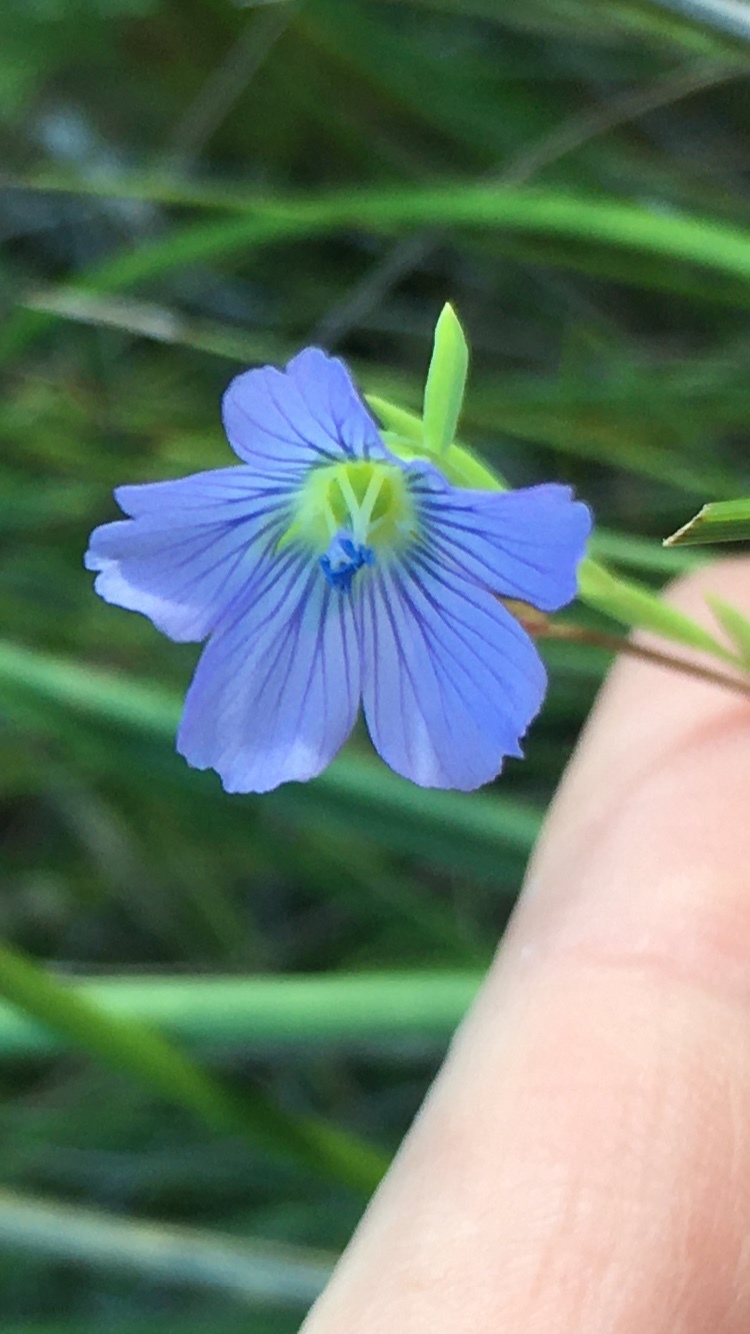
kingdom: Plantae
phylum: Tracheophyta
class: Magnoliopsida
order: Malpighiales
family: Linaceae
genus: Linum
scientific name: Linum usitatissimum
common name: Flax
